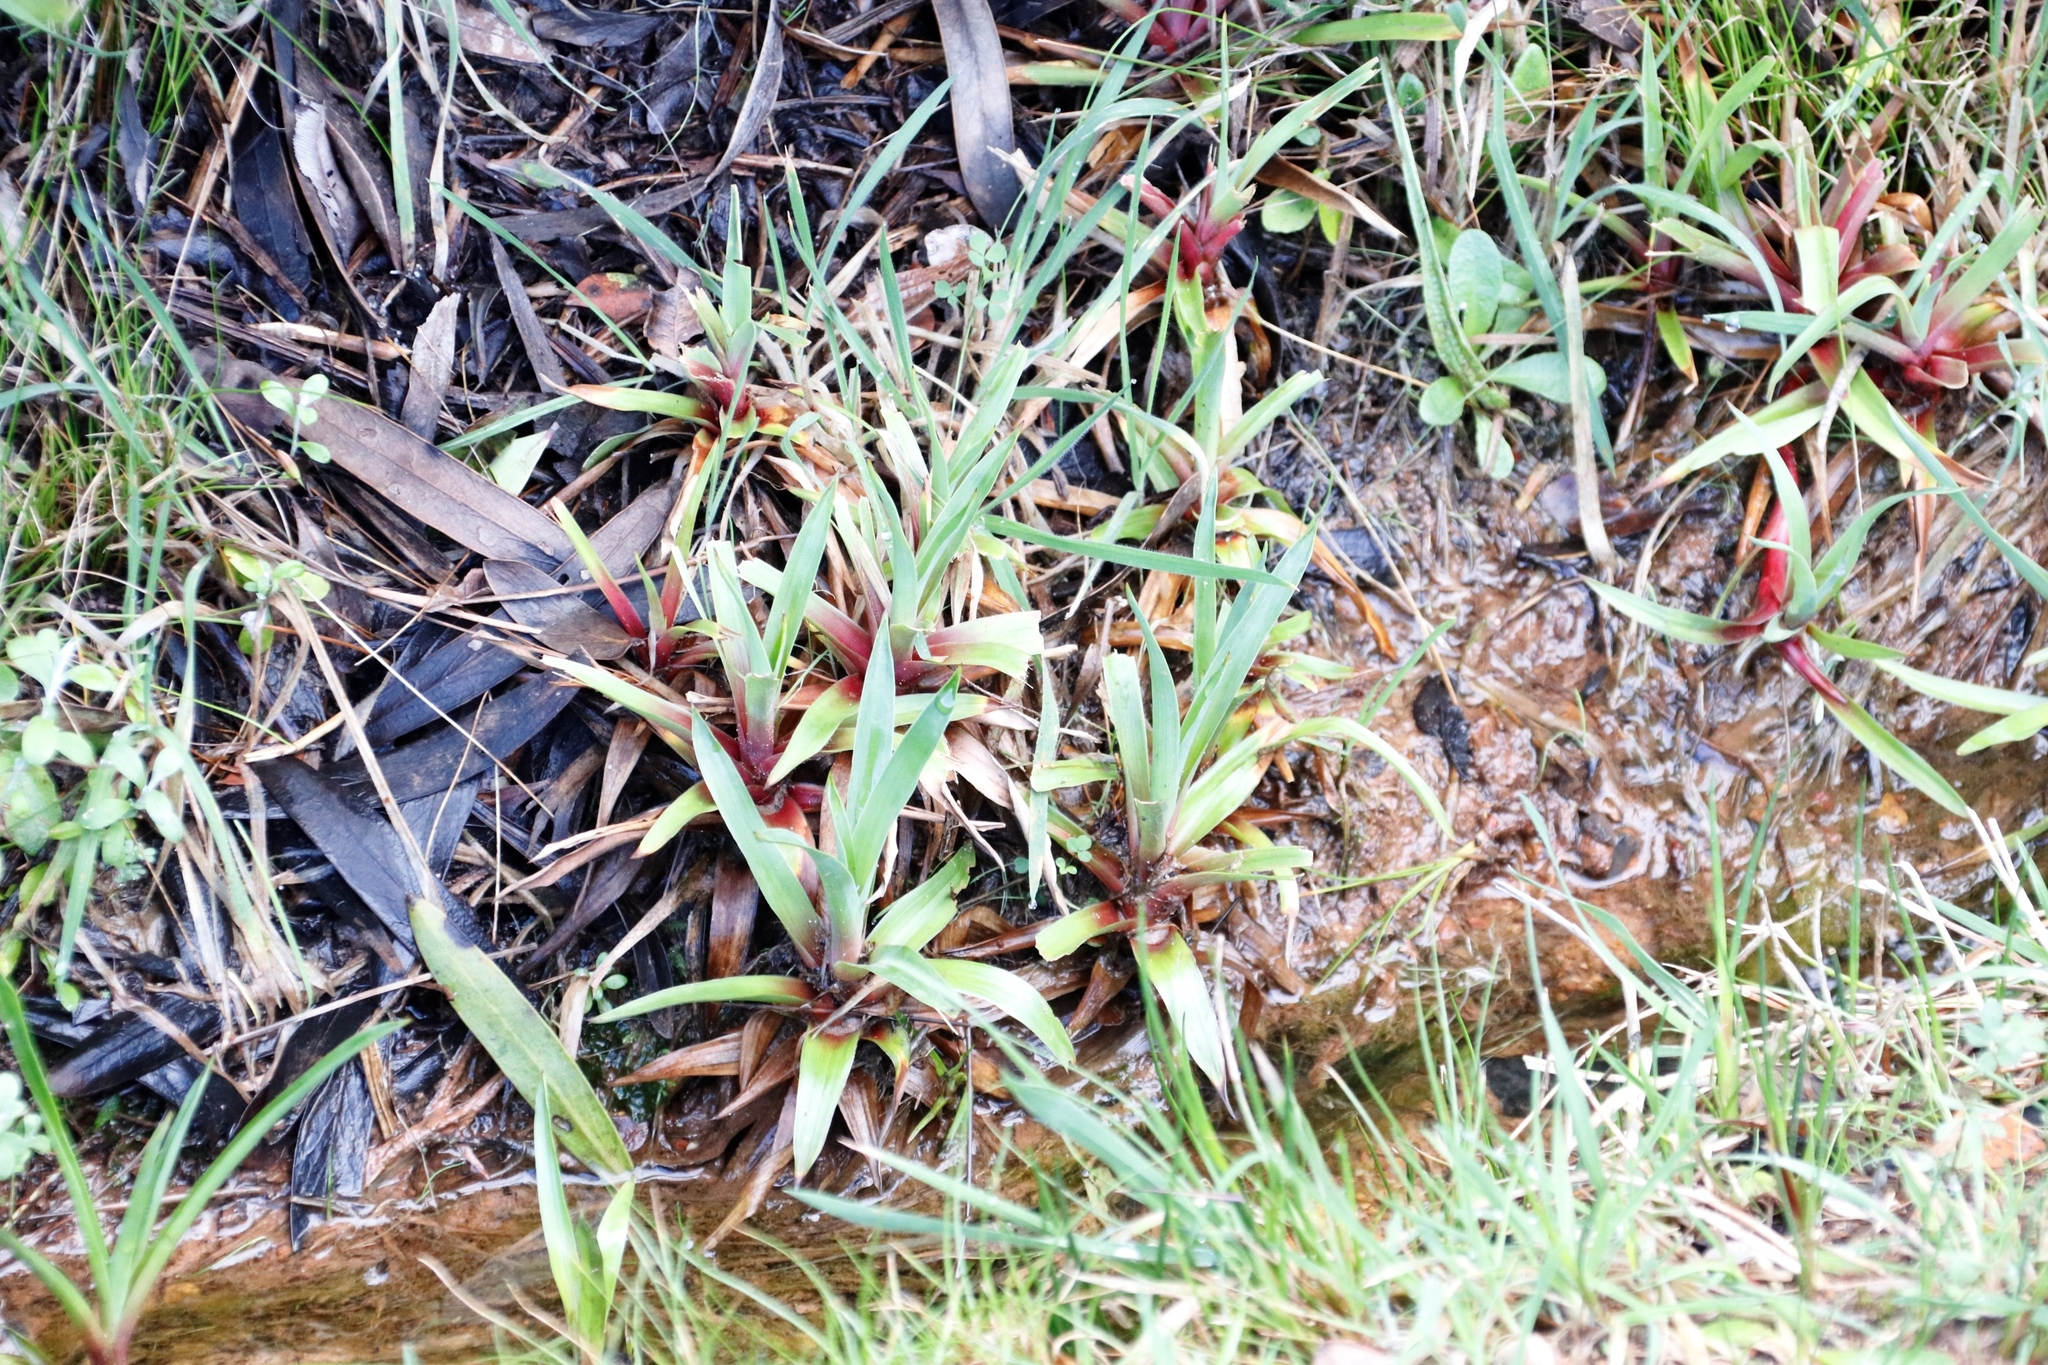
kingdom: Plantae
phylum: Tracheophyta
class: Liliopsida
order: Poales
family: Juncaceae
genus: Juncus
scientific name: Juncus lomatophyllus
